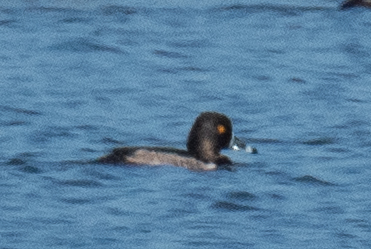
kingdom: Animalia
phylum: Chordata
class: Aves
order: Anseriformes
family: Anatidae
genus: Aythya
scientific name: Aythya collaris
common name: Ring-necked duck
